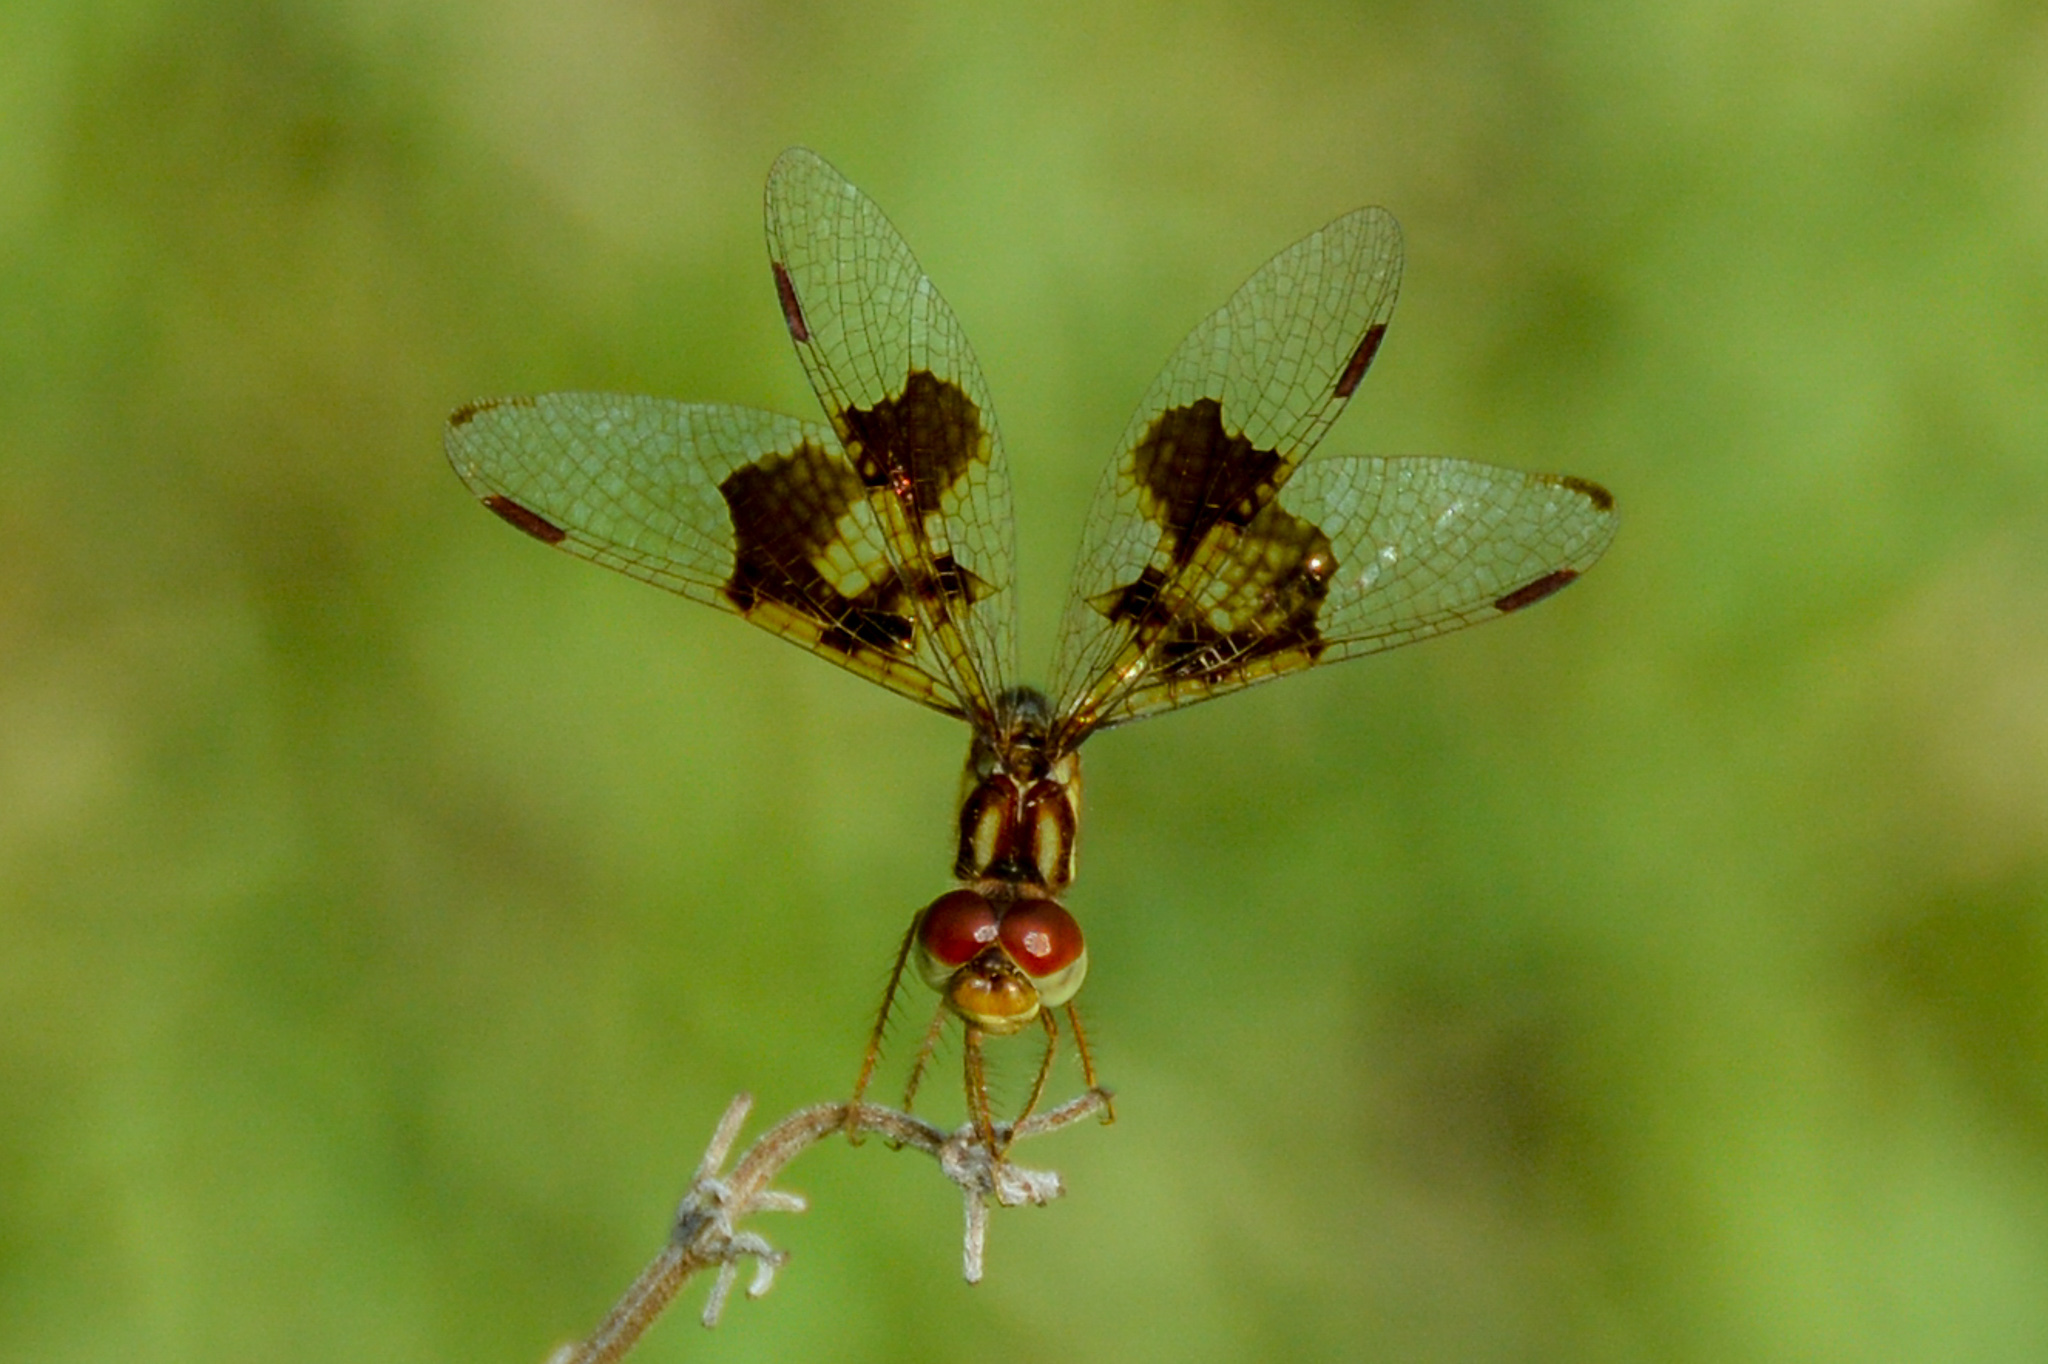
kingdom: Animalia
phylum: Arthropoda
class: Insecta
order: Odonata
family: Libellulidae
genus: Perithemis
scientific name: Perithemis tenera
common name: Eastern amberwing
